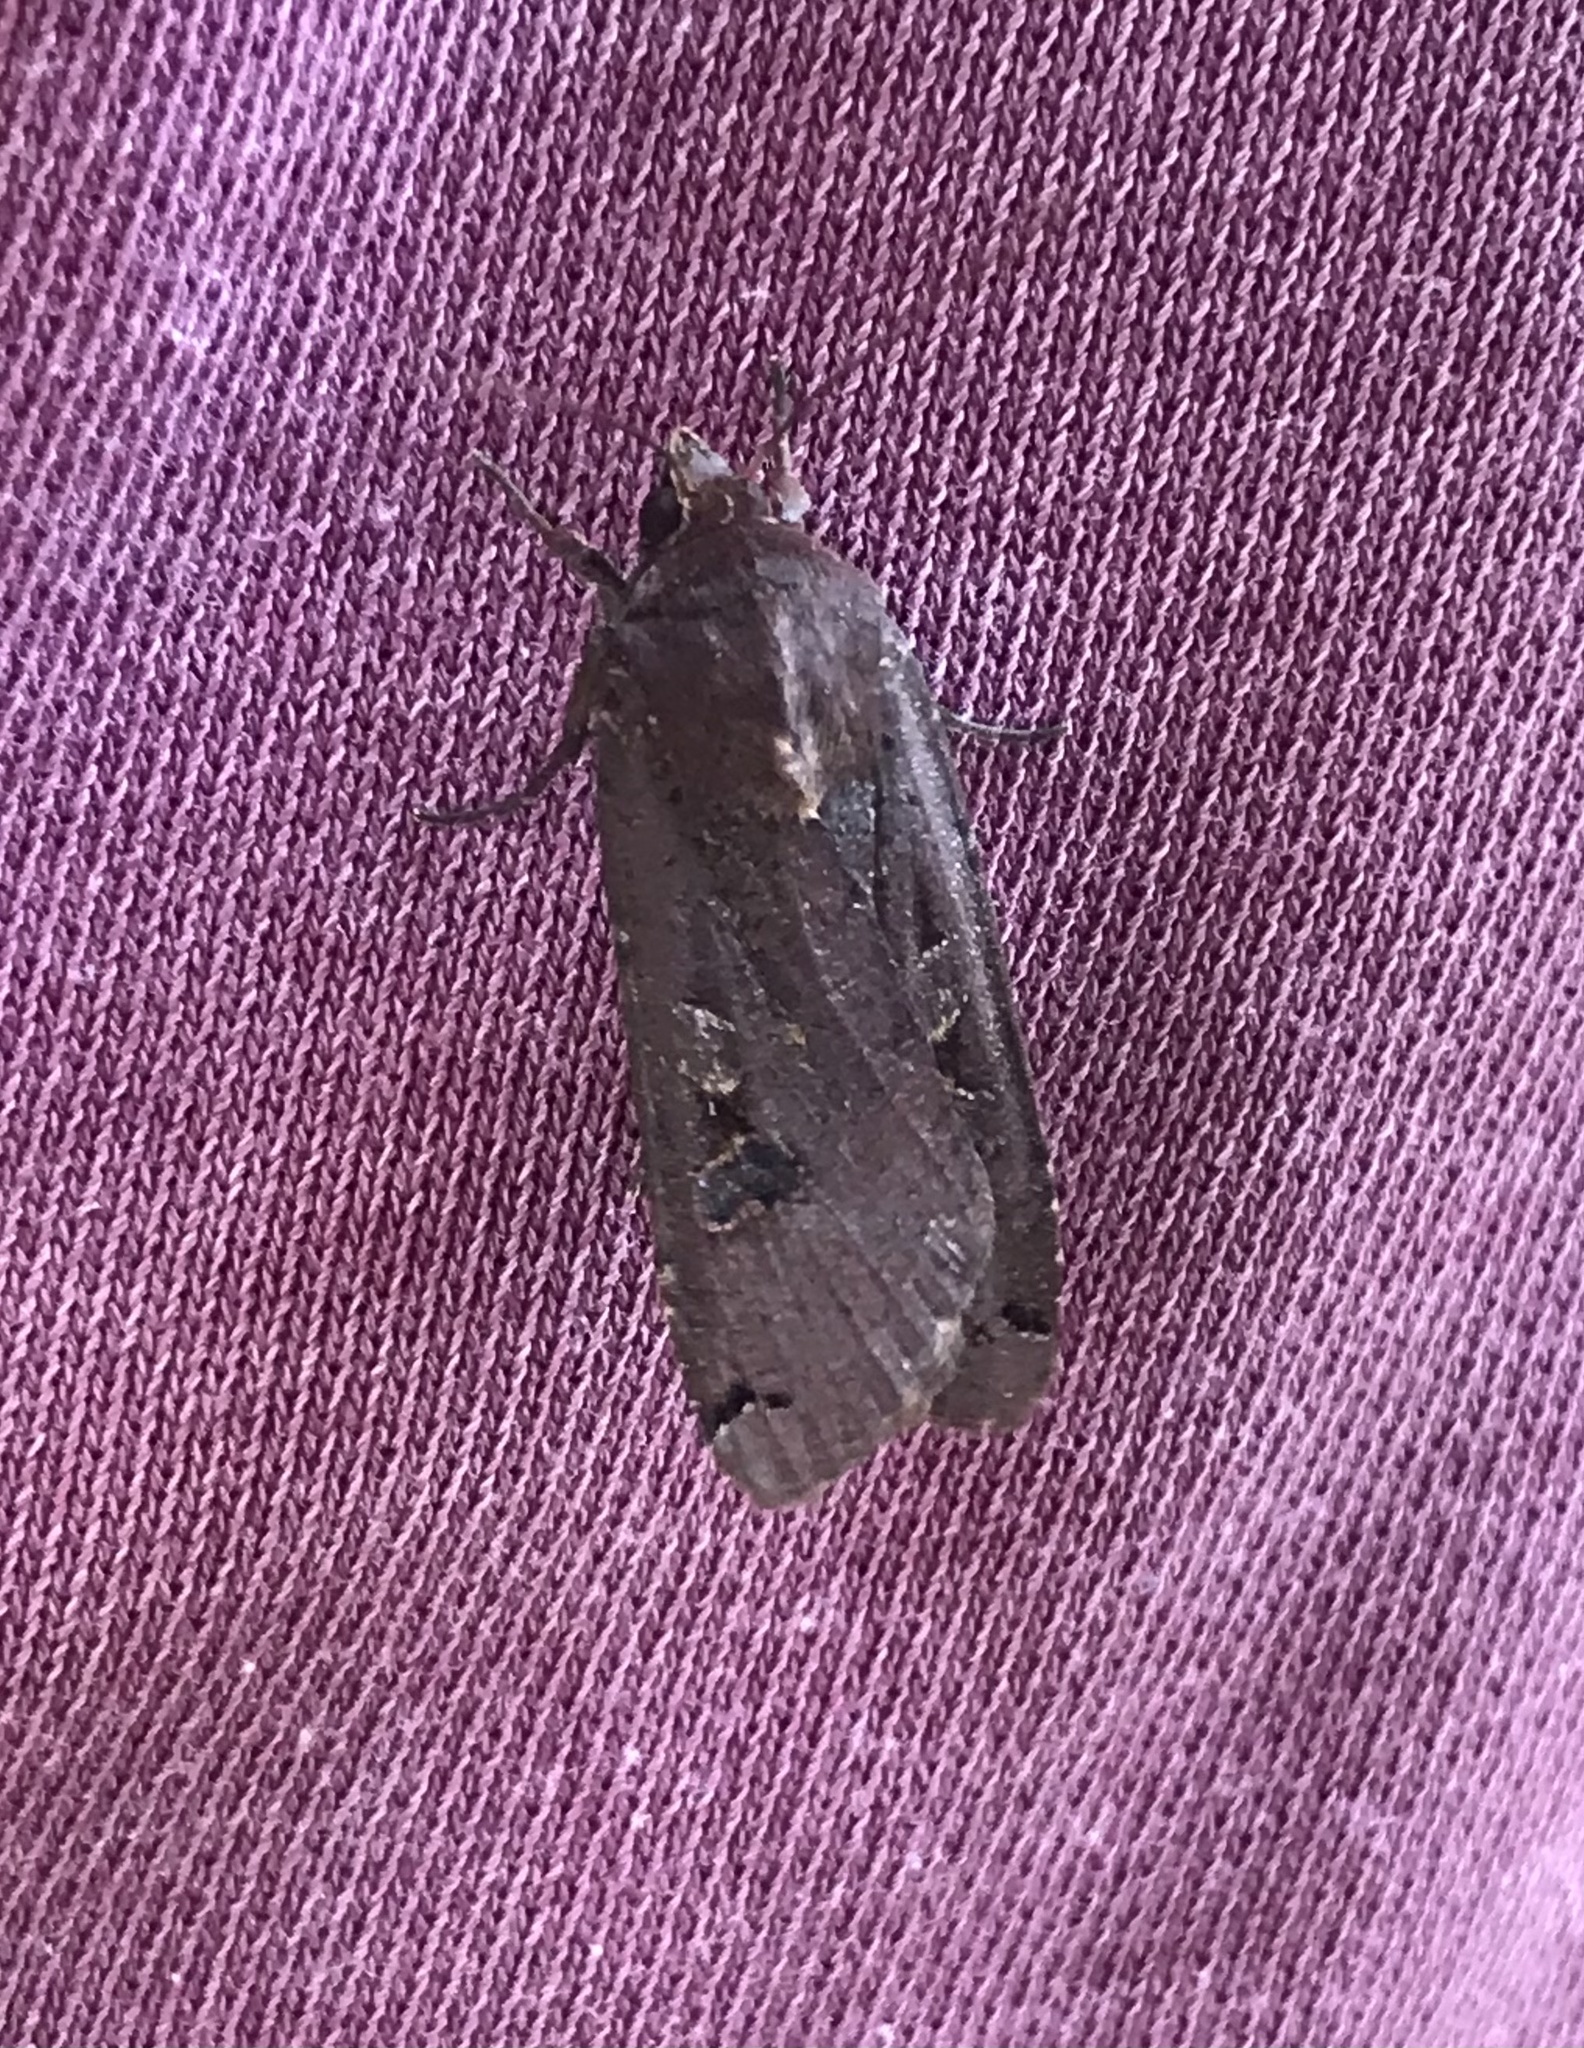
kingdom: Animalia
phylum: Arthropoda
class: Insecta
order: Lepidoptera
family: Noctuidae
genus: Noctua
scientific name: Noctua pronuba
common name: Large yellow underwing
